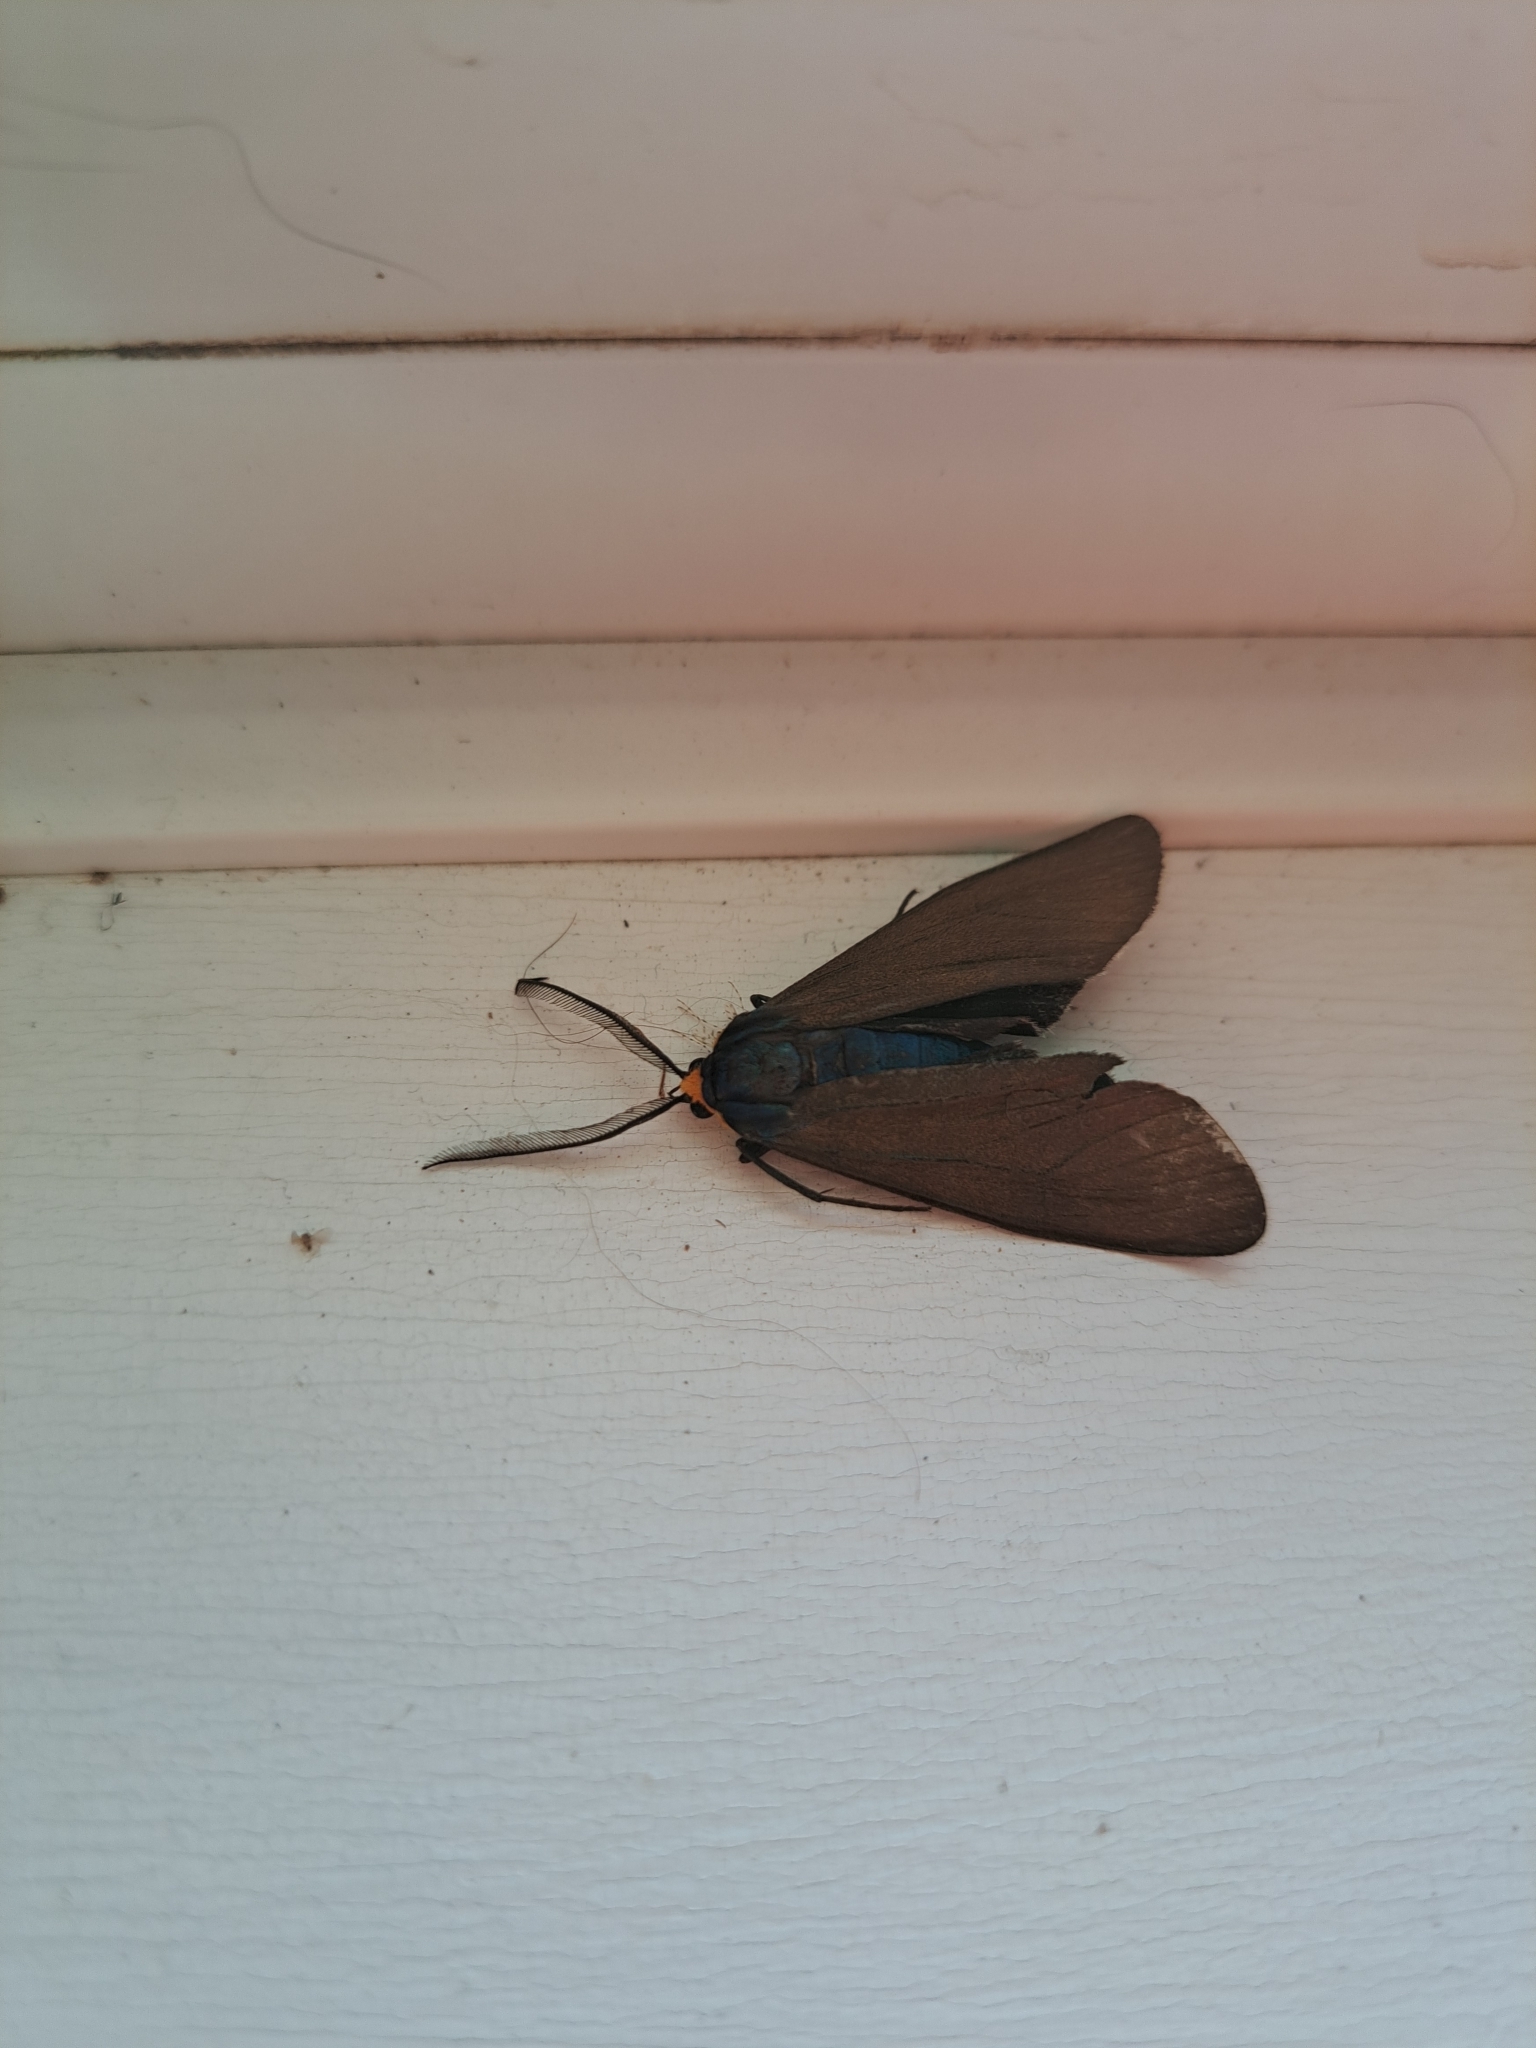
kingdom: Animalia
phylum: Arthropoda
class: Insecta
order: Lepidoptera
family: Erebidae
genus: Ctenucha
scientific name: Ctenucha virginica
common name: Virginia ctenucha moth
